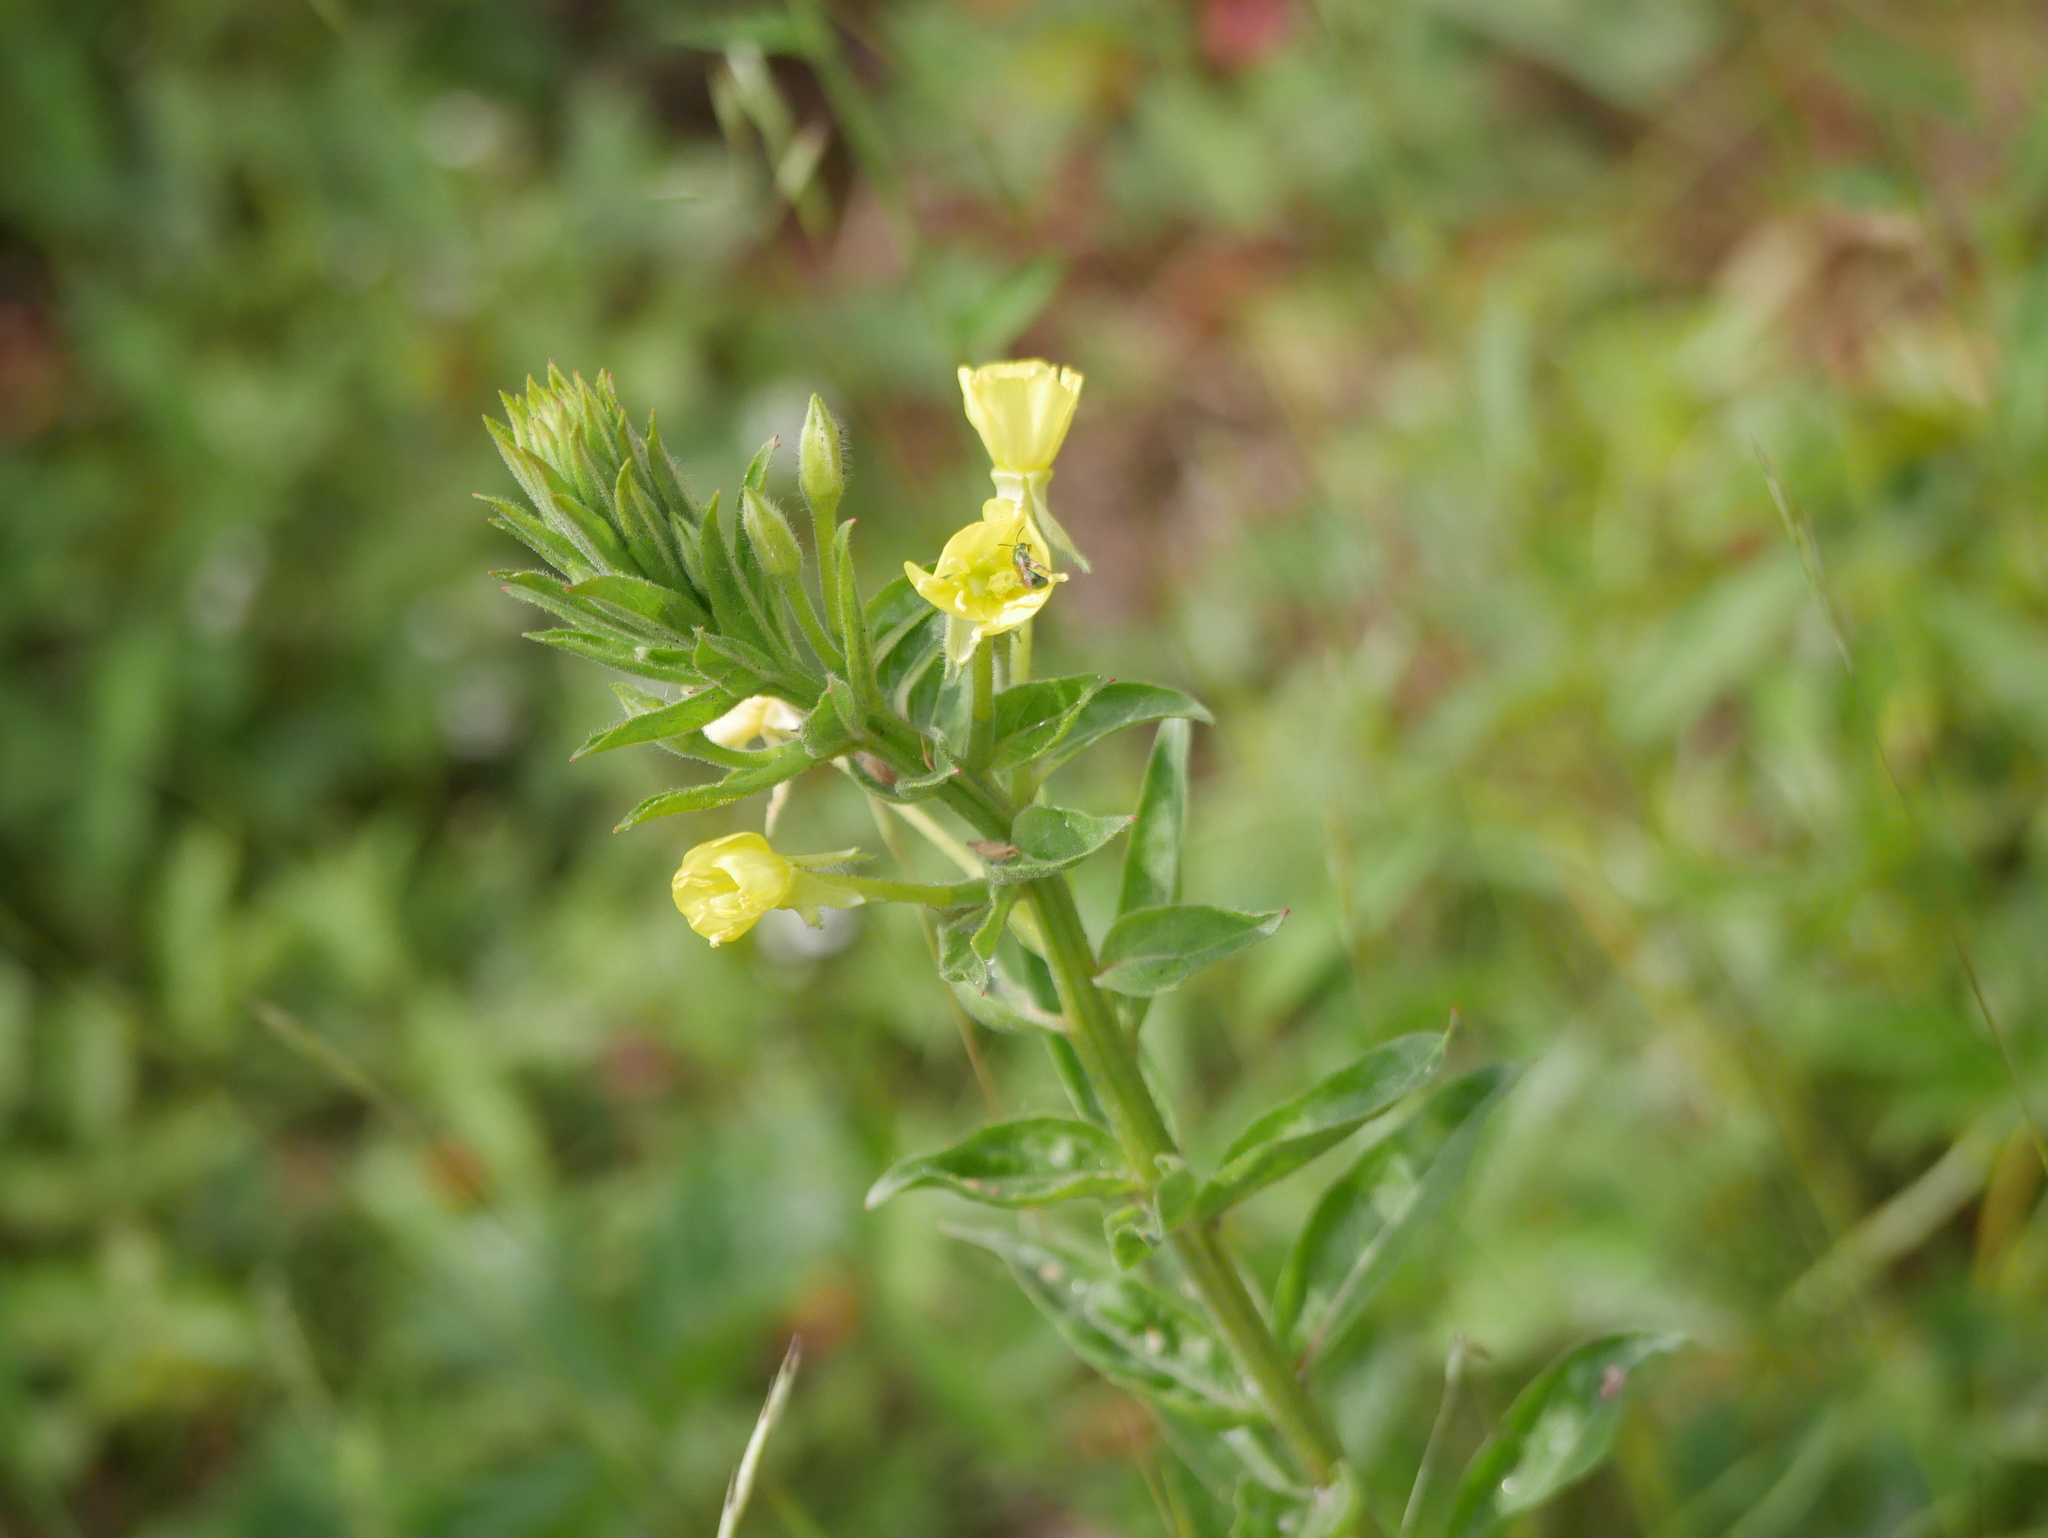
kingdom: Plantae
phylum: Tracheophyta
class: Magnoliopsida
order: Myrtales
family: Onagraceae
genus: Oenothera
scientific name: Oenothera biennis
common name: Common evening-primrose
